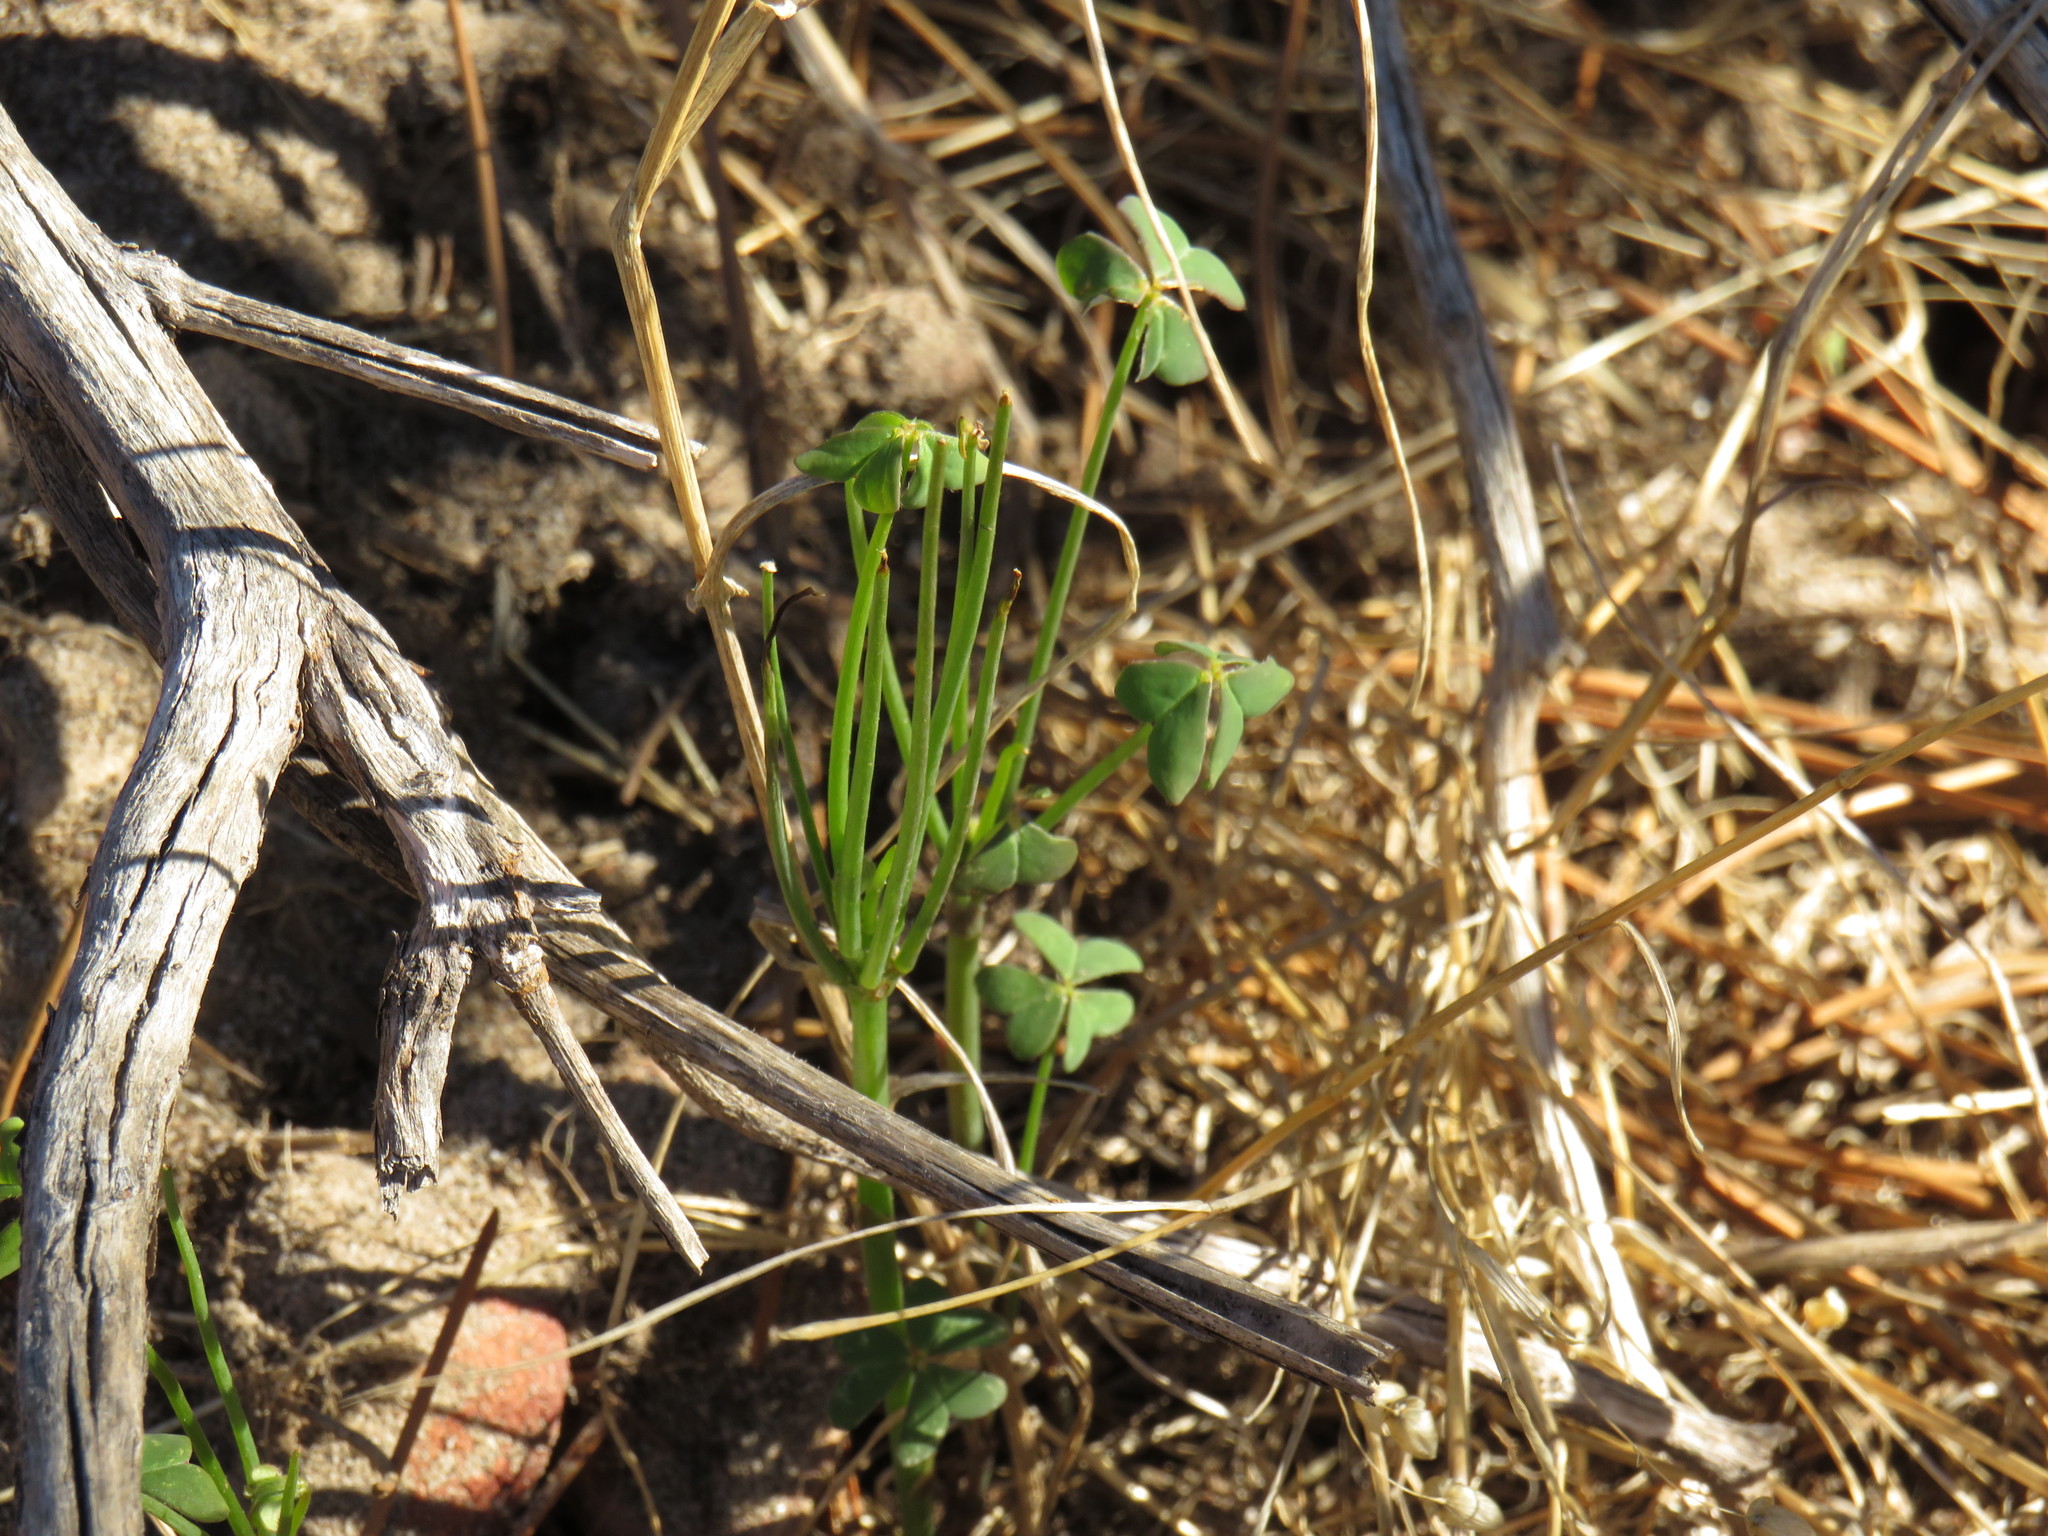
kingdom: Plantae
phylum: Tracheophyta
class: Magnoliopsida
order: Oxalidales
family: Oxalidaceae
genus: Oxalis
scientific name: Oxalis pes-caprae
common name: Bermuda-buttercup
